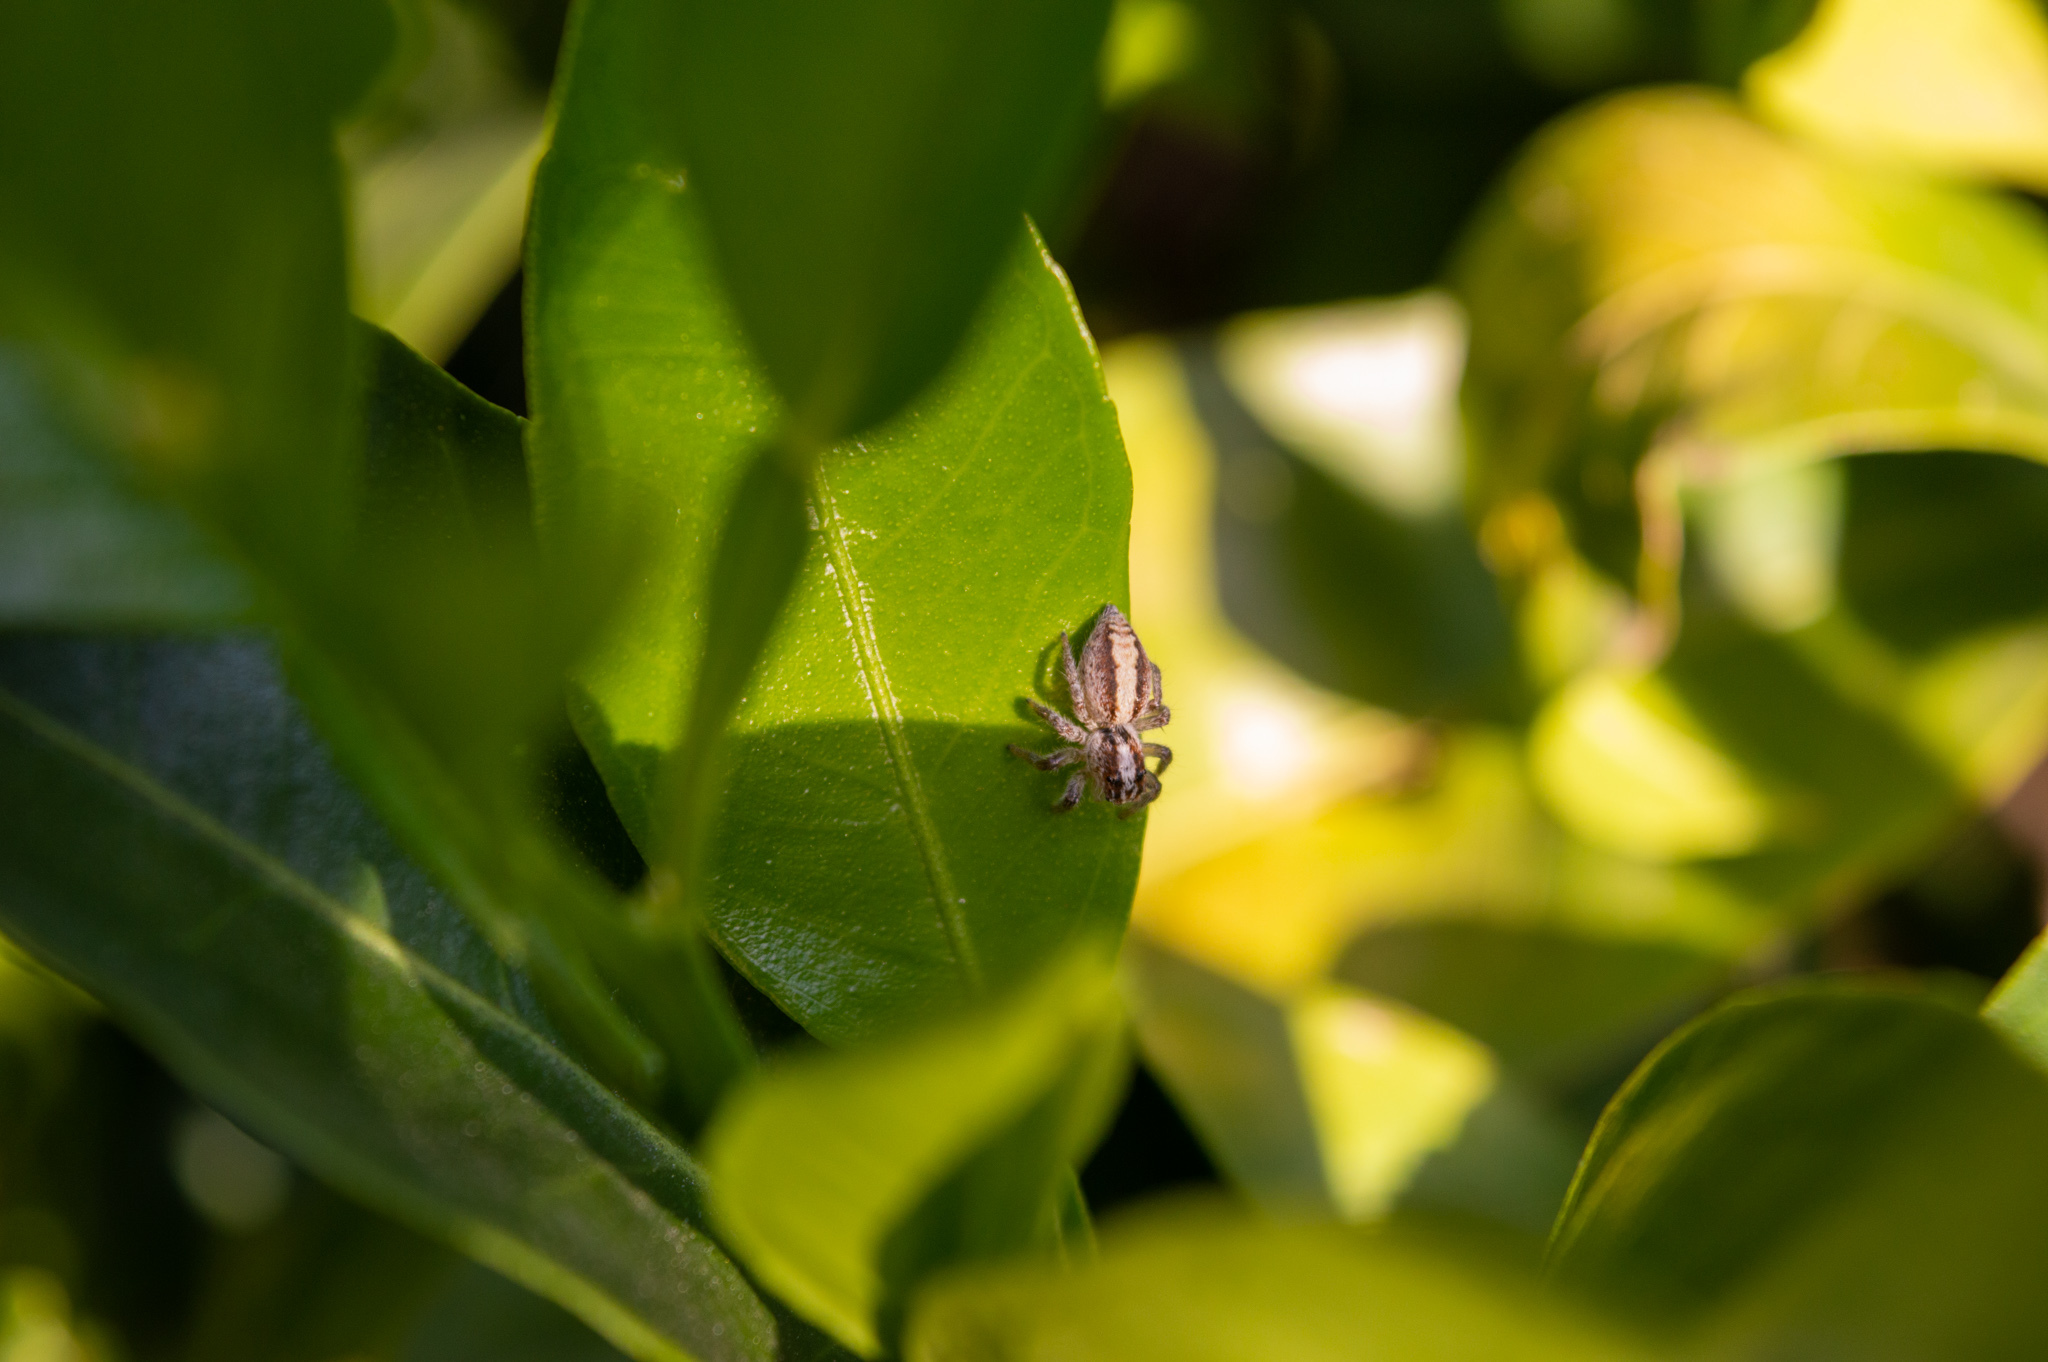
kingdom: Animalia
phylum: Arthropoda
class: Arachnida
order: Araneae
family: Salticidae
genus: Megafreya
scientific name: Megafreya sutrix
